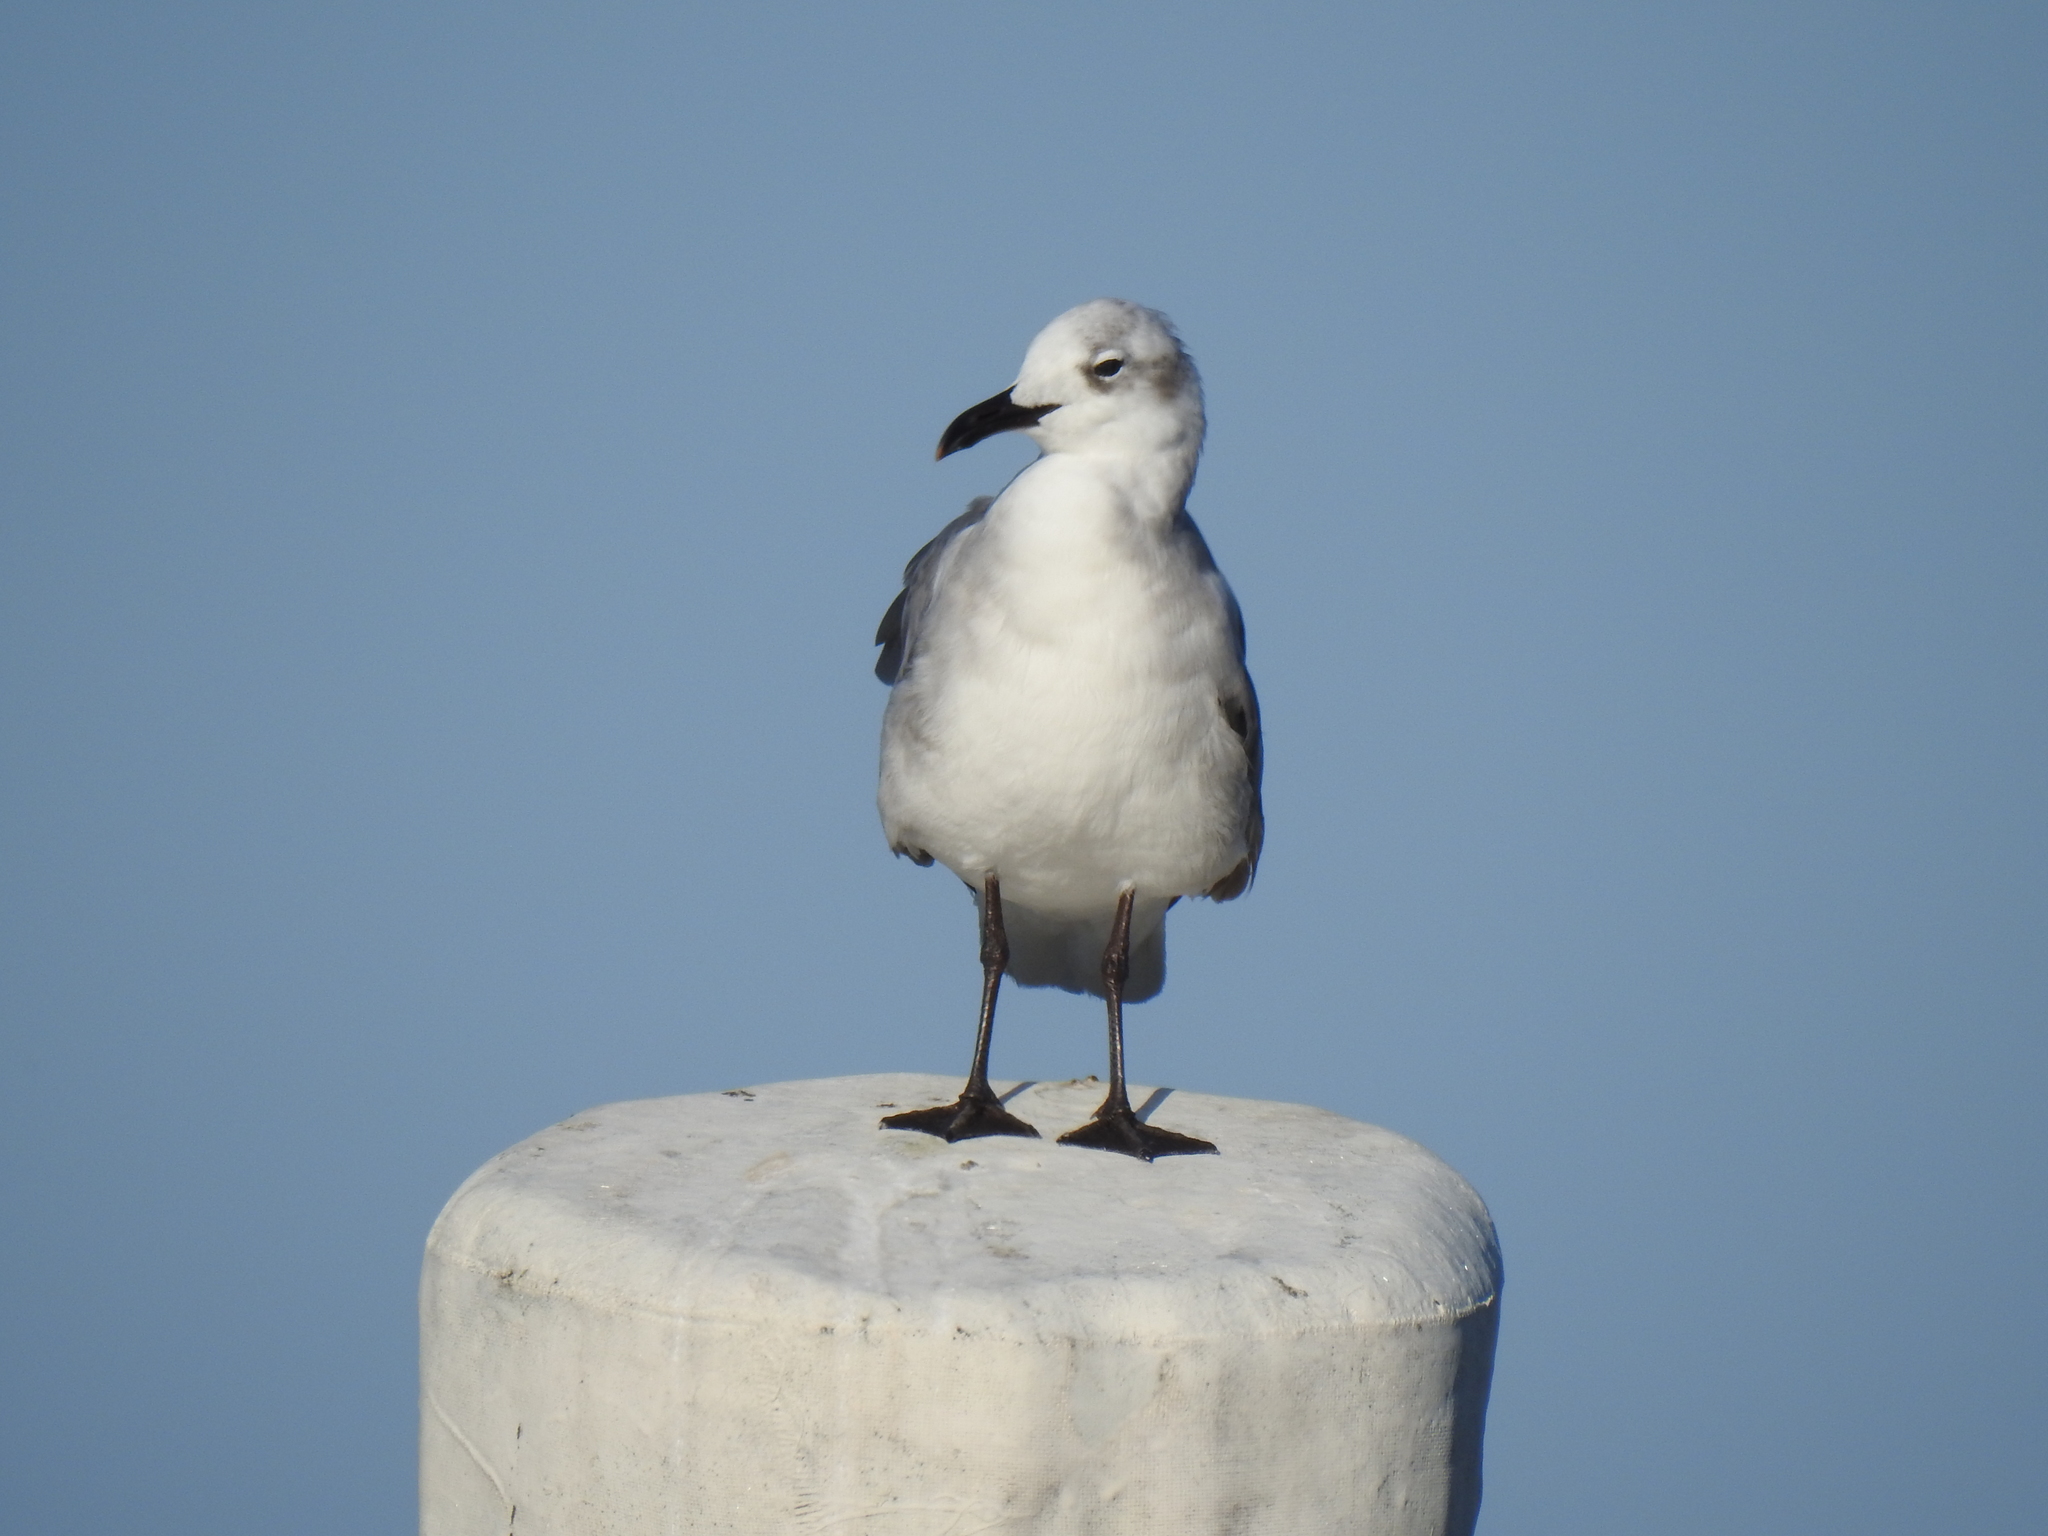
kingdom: Animalia
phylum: Chordata
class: Aves
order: Charadriiformes
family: Laridae
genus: Leucophaeus
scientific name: Leucophaeus atricilla
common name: Laughing gull
